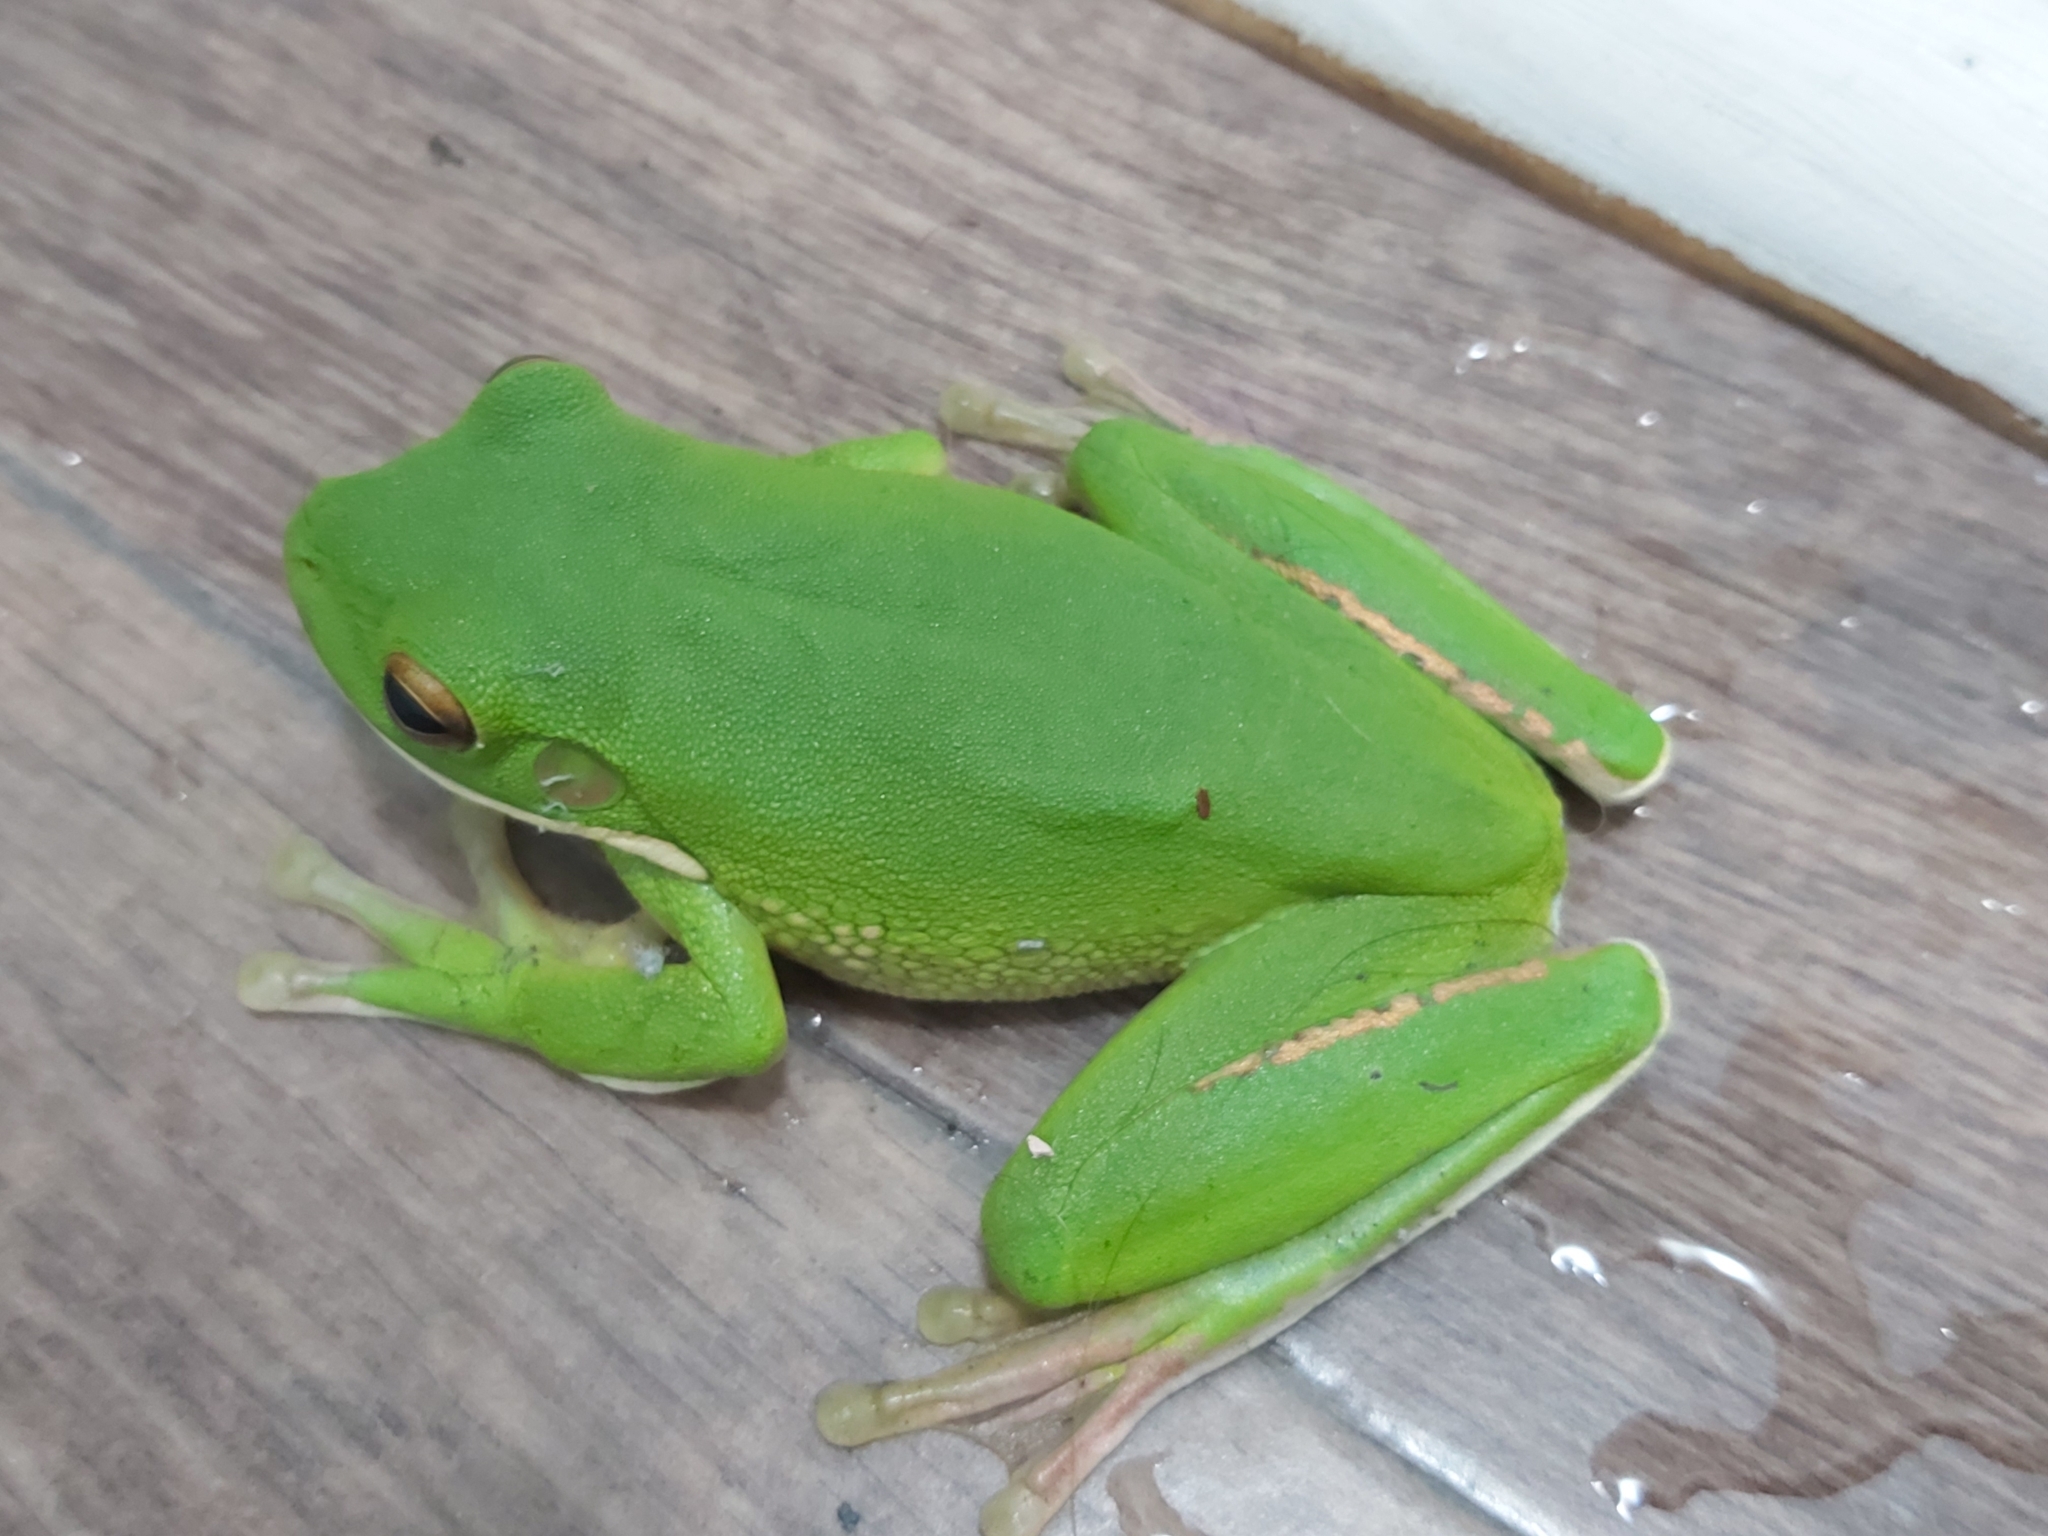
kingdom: Animalia
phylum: Chordata
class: Amphibia
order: Anura
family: Pelodryadidae
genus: Nyctimystes
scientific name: Nyctimystes infrafrenatus
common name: Australian giant treefrog
